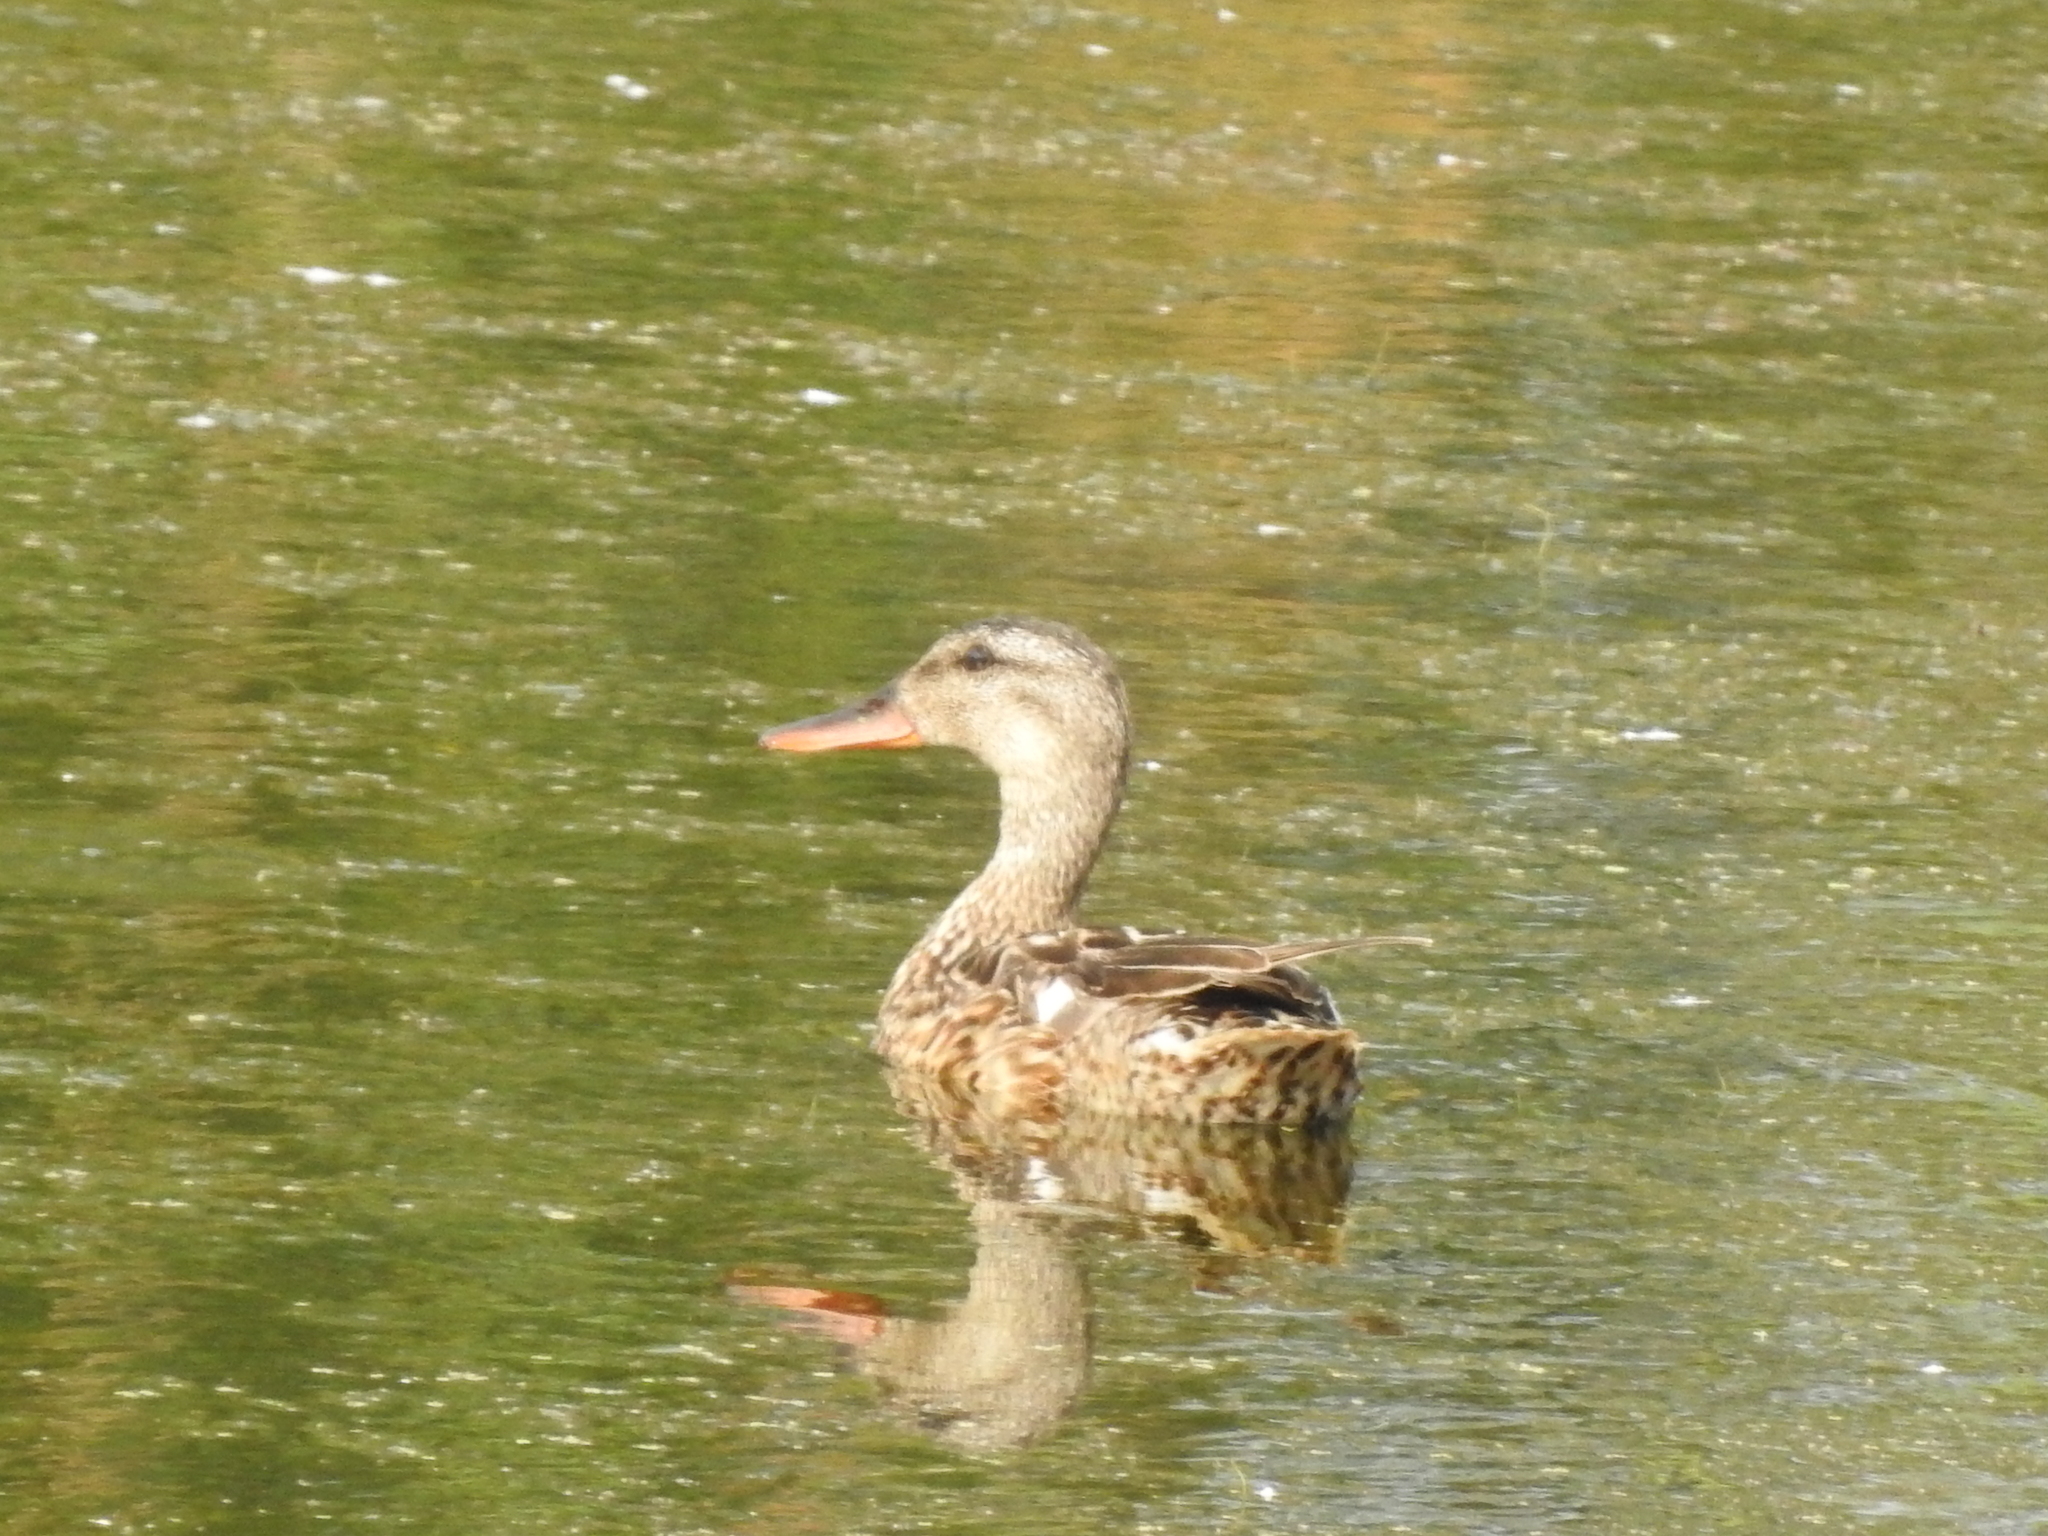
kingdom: Animalia
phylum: Chordata
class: Aves
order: Anseriformes
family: Anatidae
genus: Mareca
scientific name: Mareca strepera
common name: Gadwall
